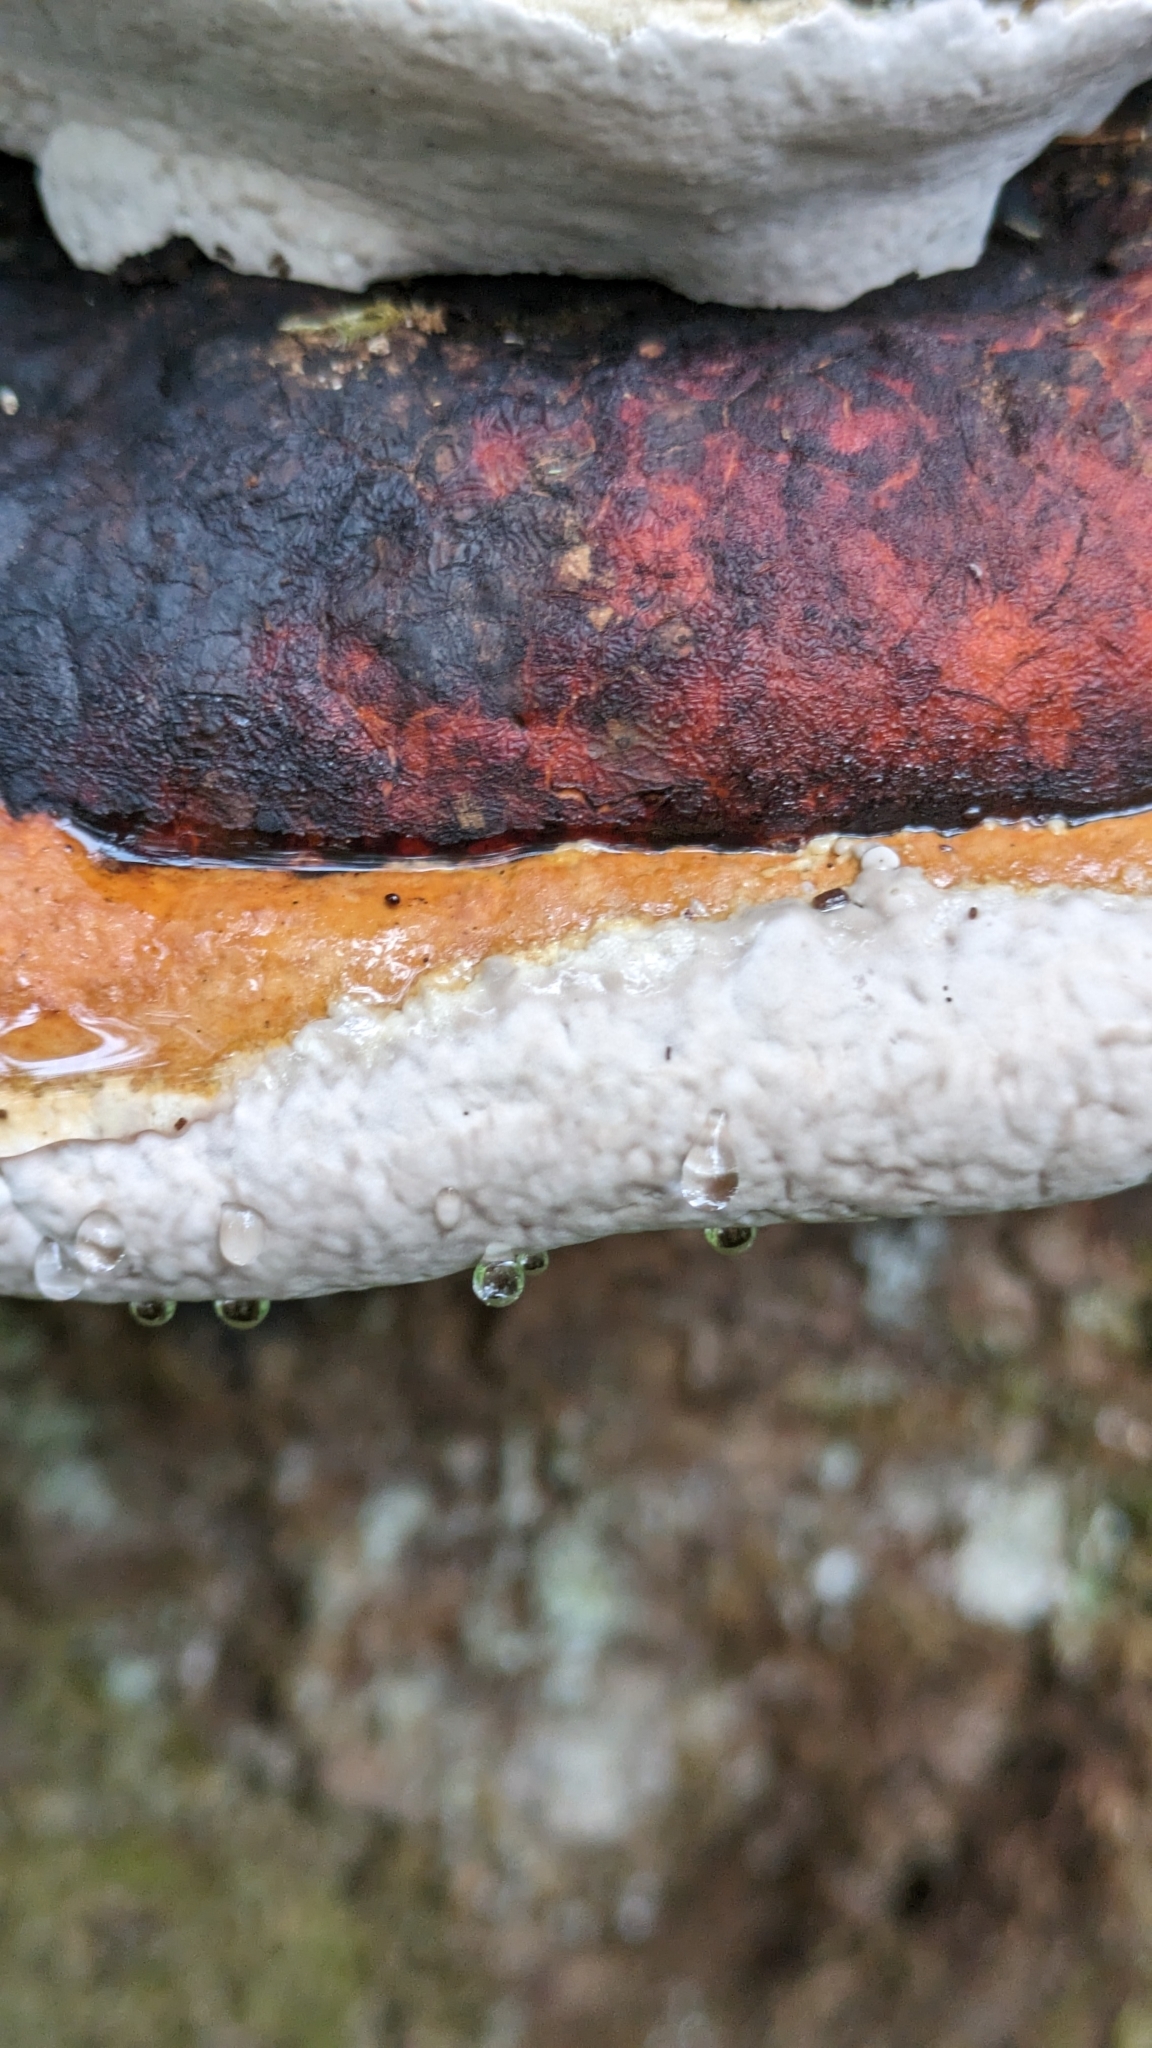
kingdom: Fungi
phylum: Basidiomycota
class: Agaricomycetes
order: Polyporales
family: Fomitopsidaceae
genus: Fomitopsis
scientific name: Fomitopsis mounceae
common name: Northern red belt
